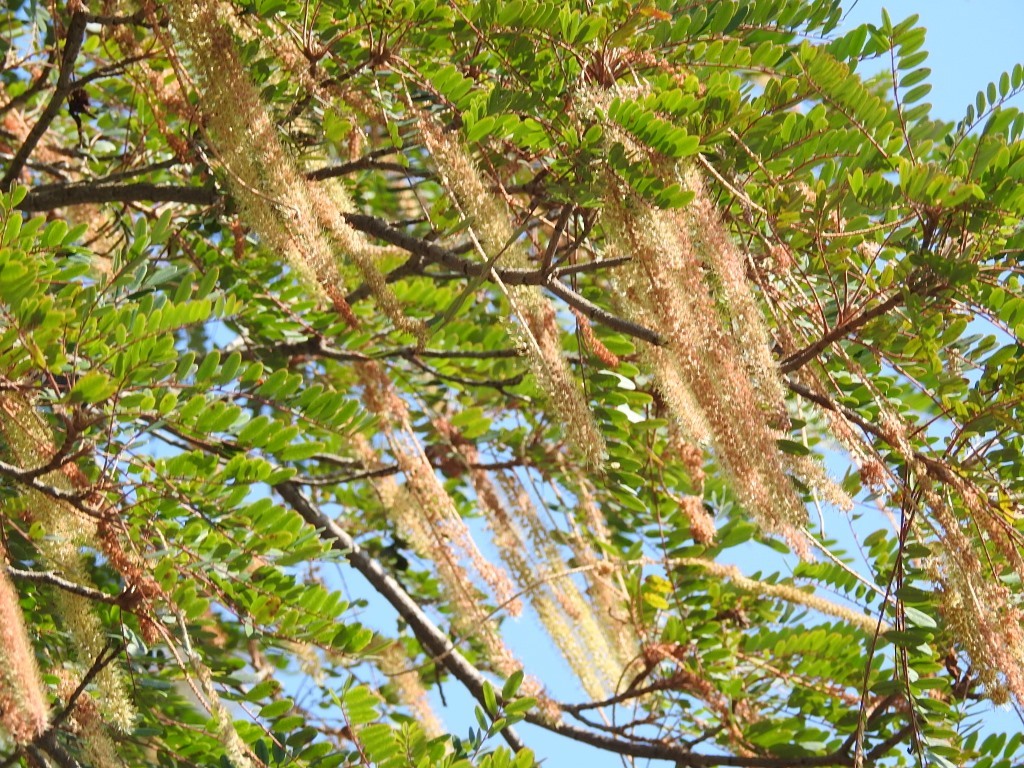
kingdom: Plantae
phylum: Tracheophyta
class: Magnoliopsida
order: Picramniales
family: Picramniaceae
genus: Alvaradoa
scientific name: Alvaradoa amorphoides
